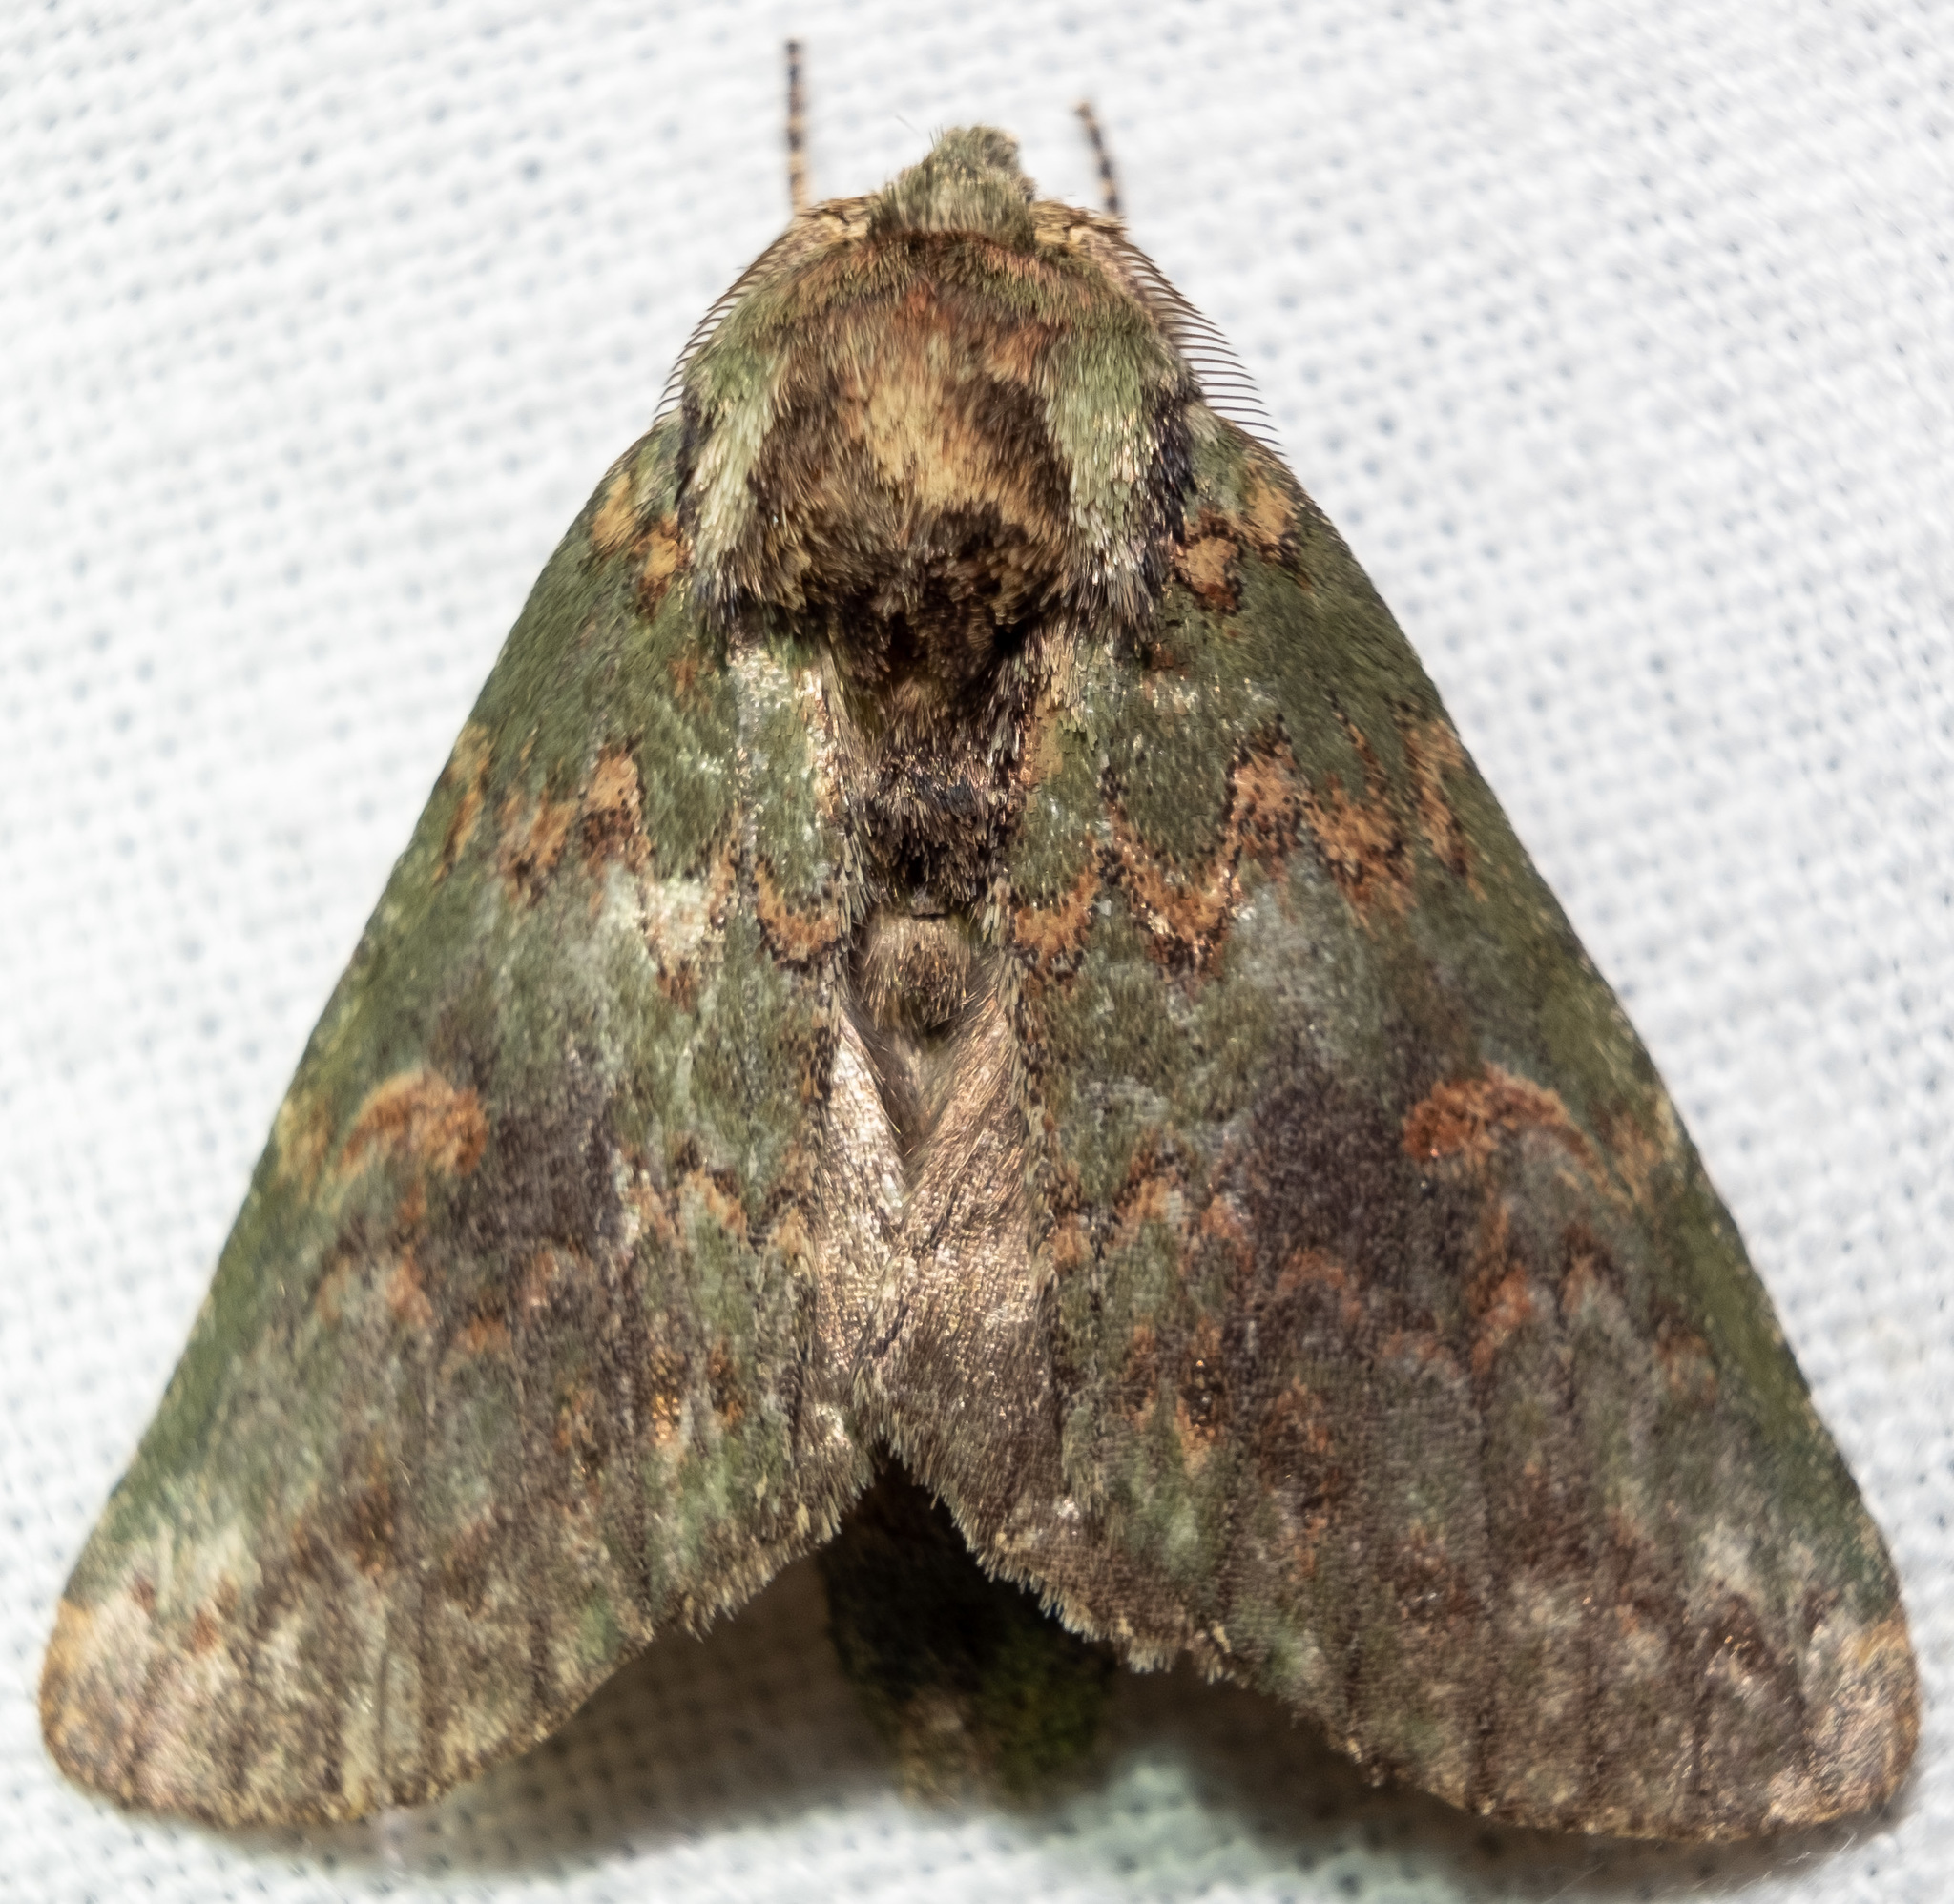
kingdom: Animalia
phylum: Arthropoda
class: Insecta
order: Lepidoptera
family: Notodontidae
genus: Disphragis
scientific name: Disphragis Cecrita biundata
